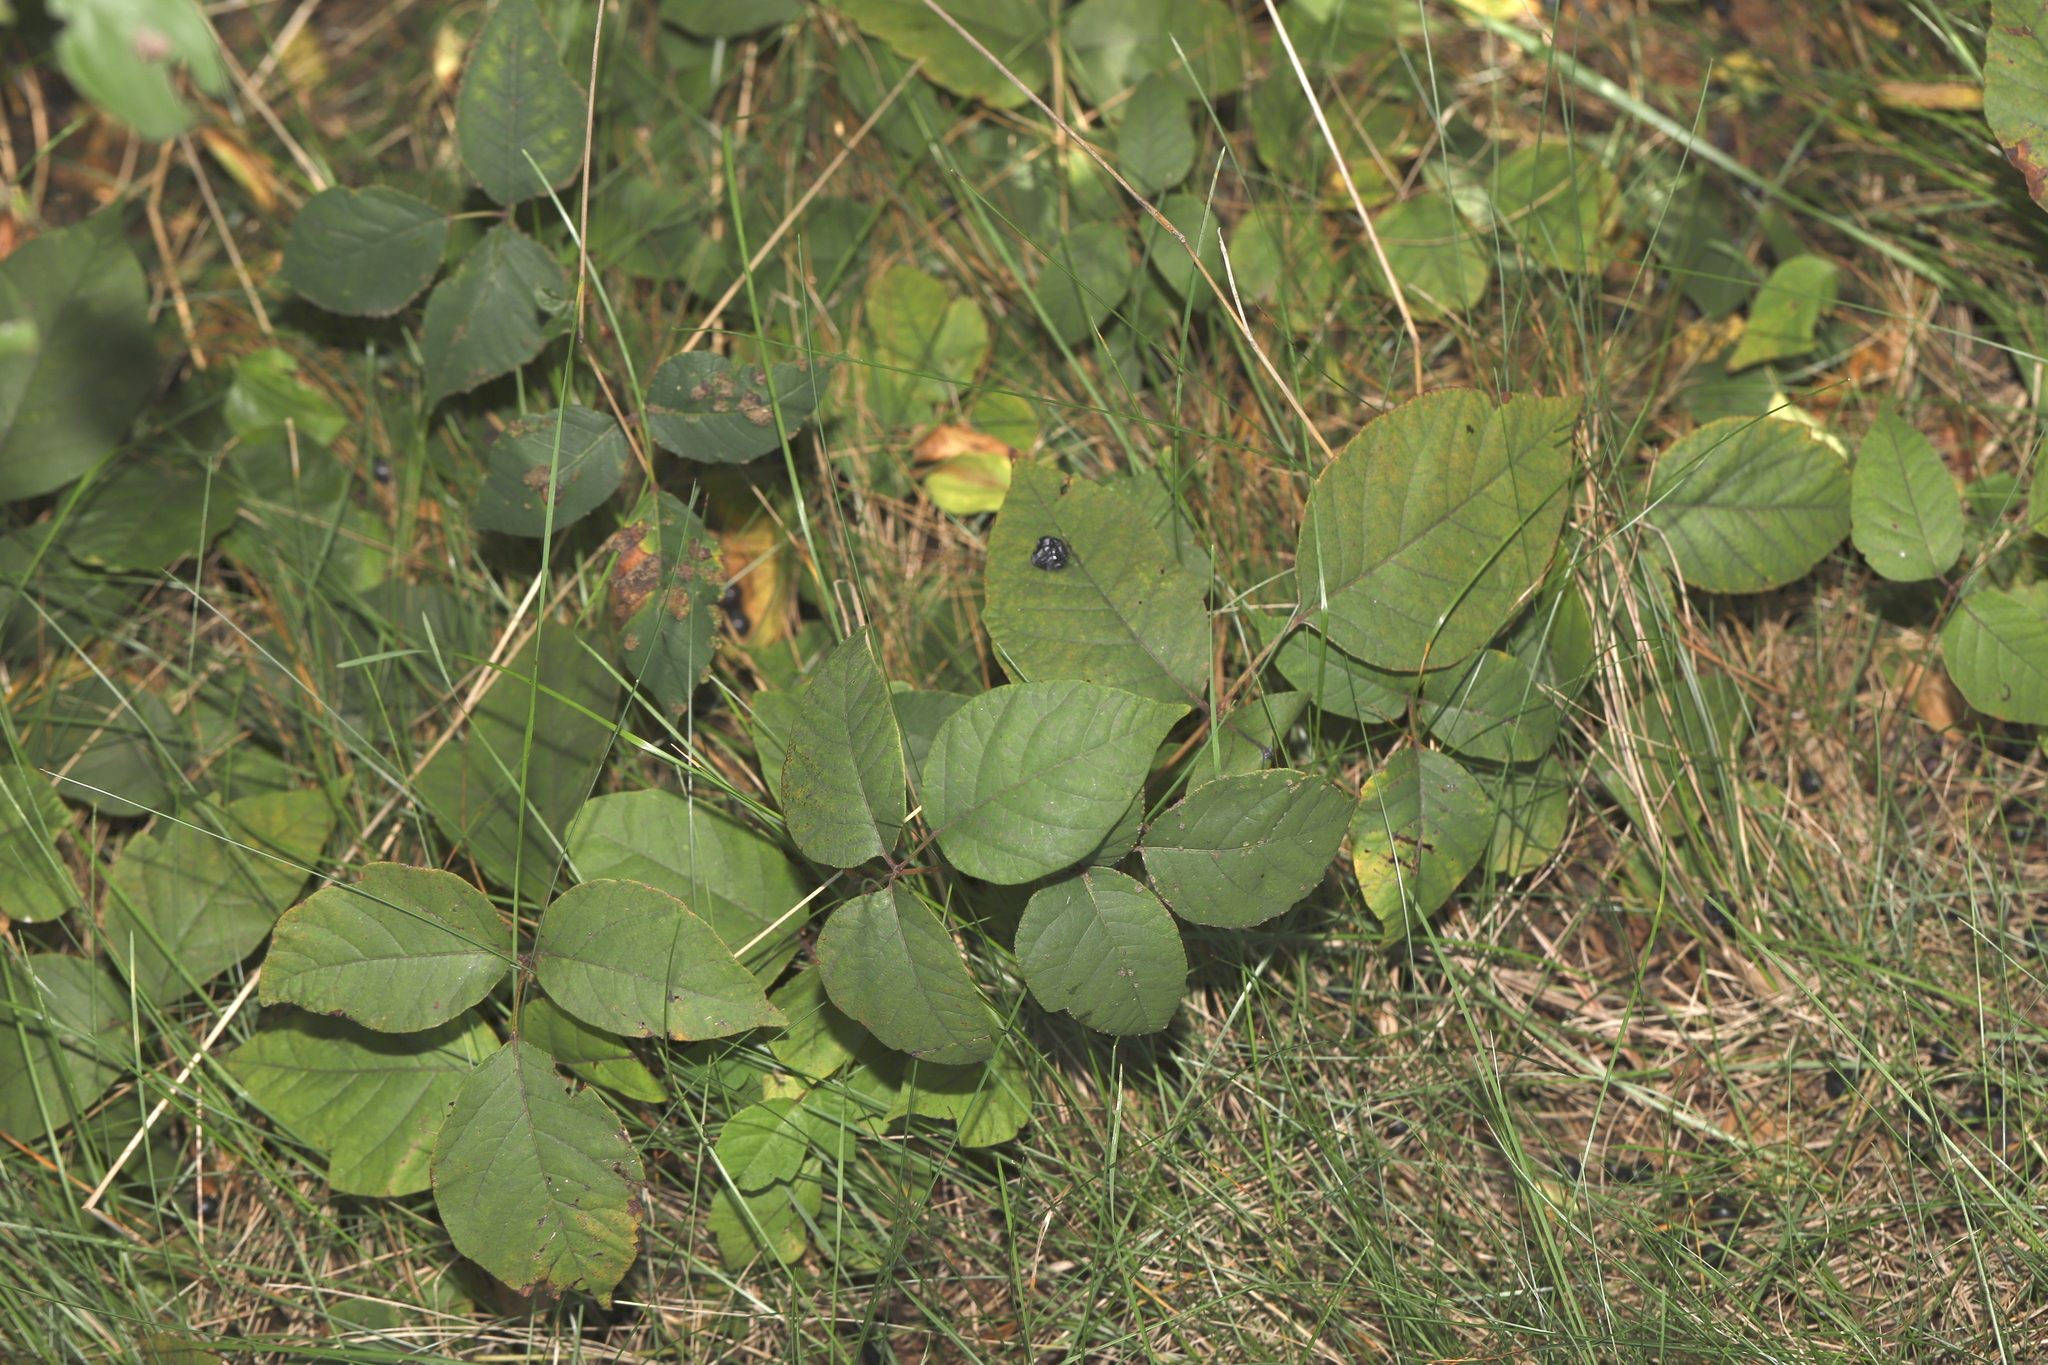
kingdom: Plantae
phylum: Tracheophyta
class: Magnoliopsida
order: Sapindales
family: Anacardiaceae
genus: Toxicodendron
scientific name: Toxicodendron radicans
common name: Poison ivy
